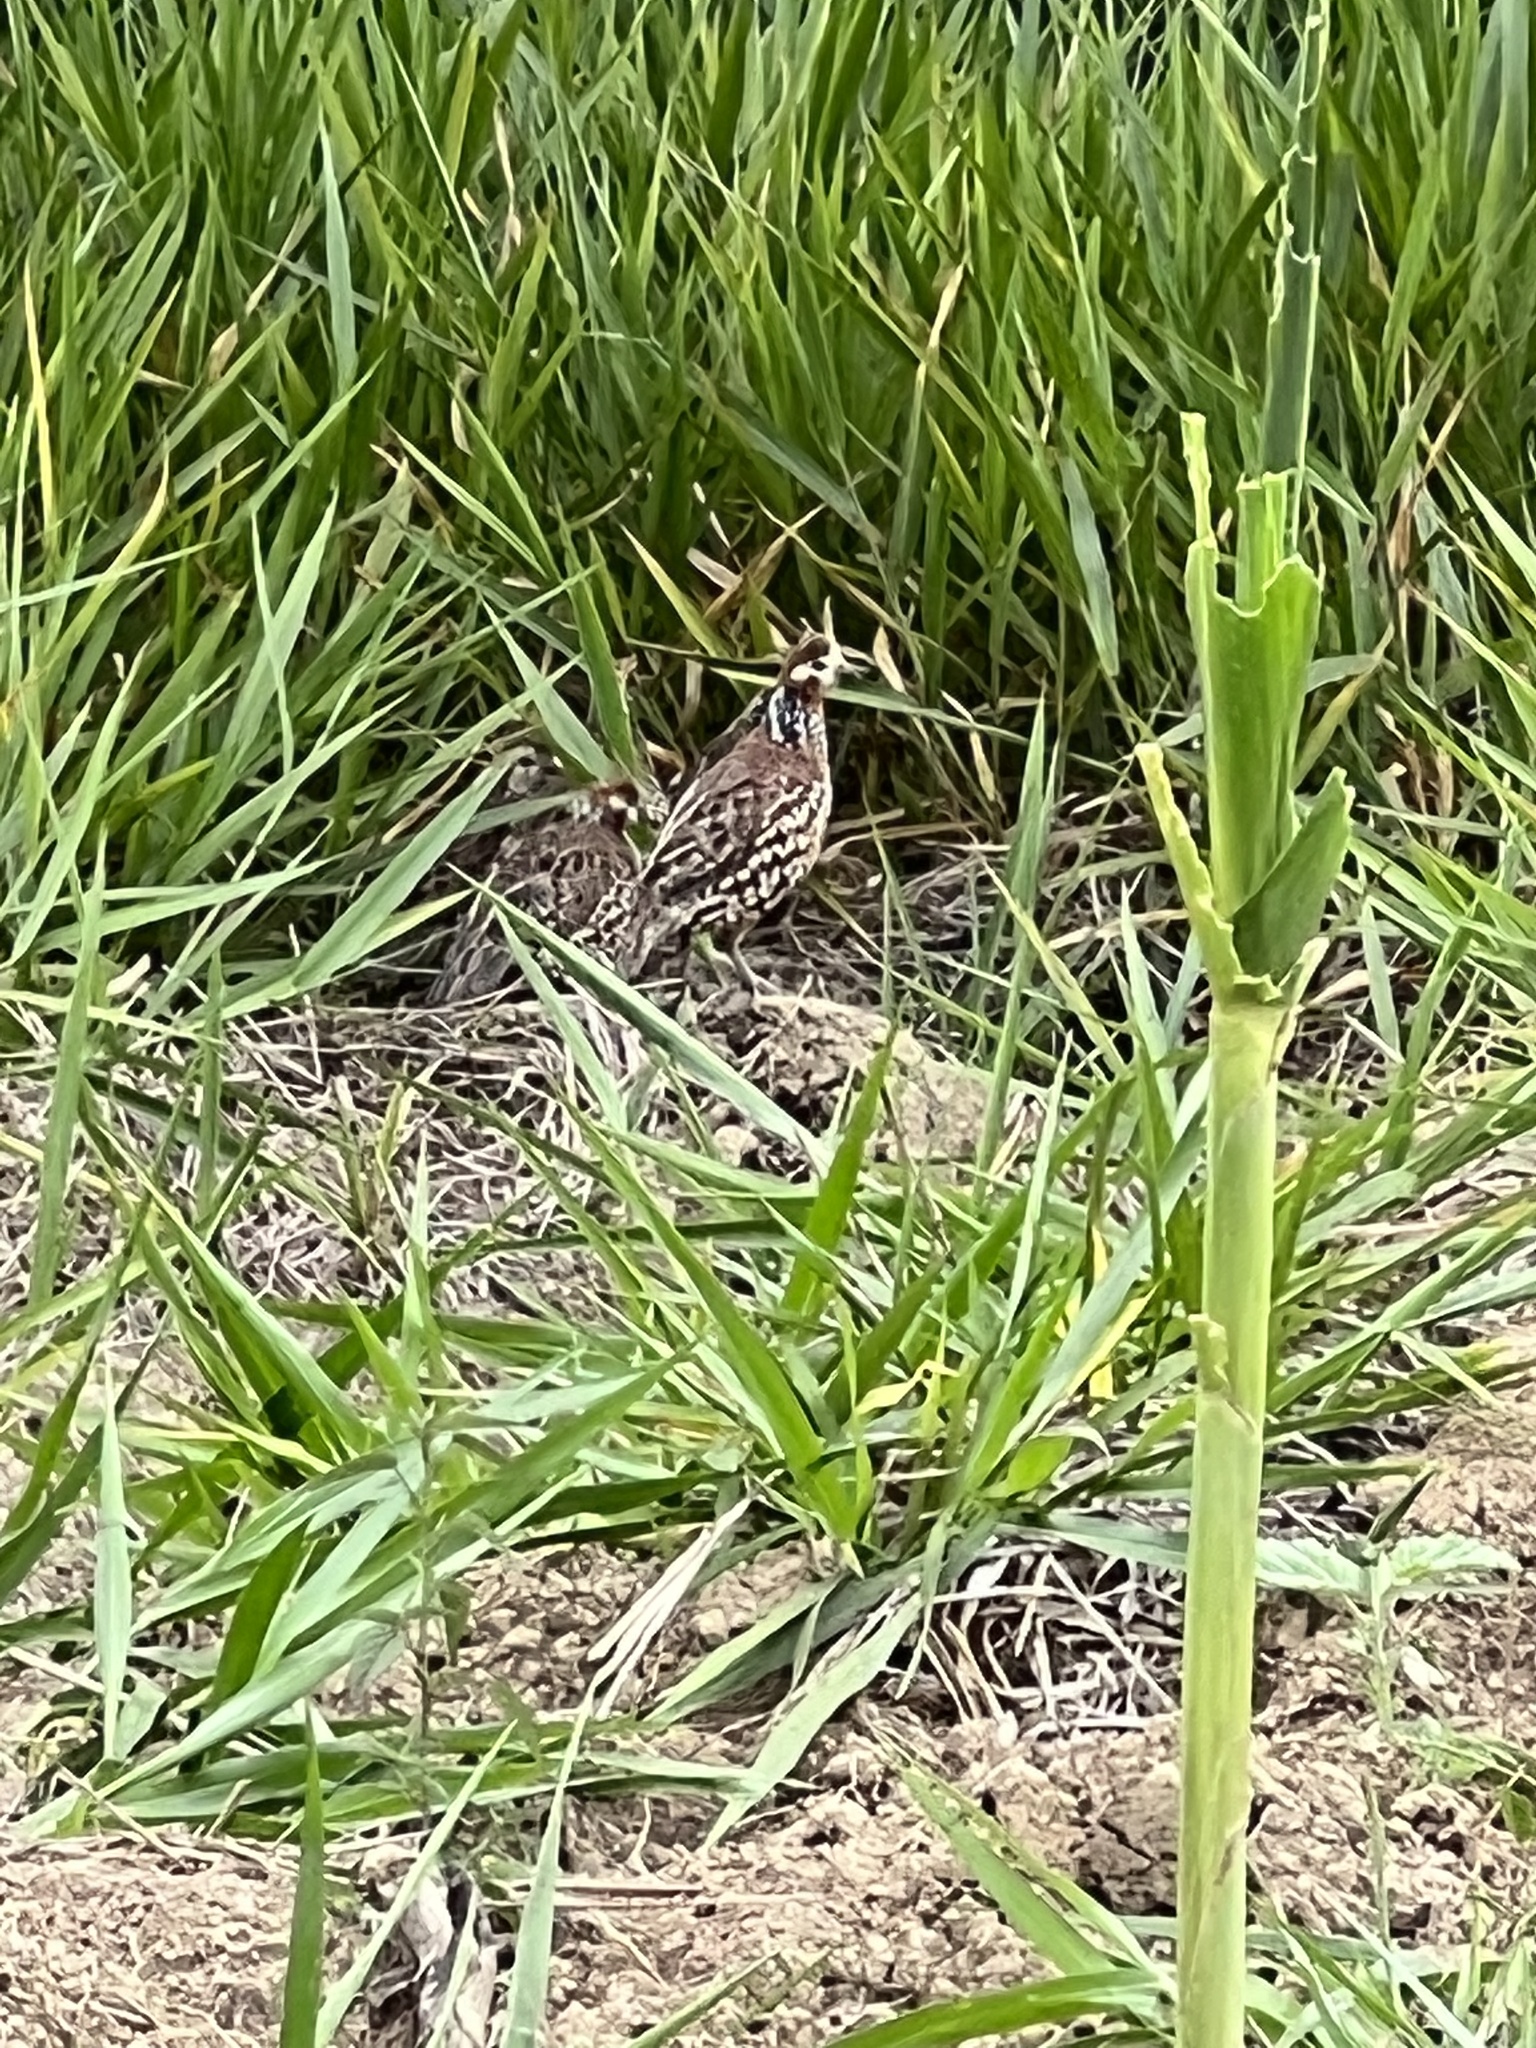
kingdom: Animalia
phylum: Chordata
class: Aves
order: Galliformes
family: Odontophoridae
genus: Colinus
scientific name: Colinus cristatus
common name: Crested bobwhite
